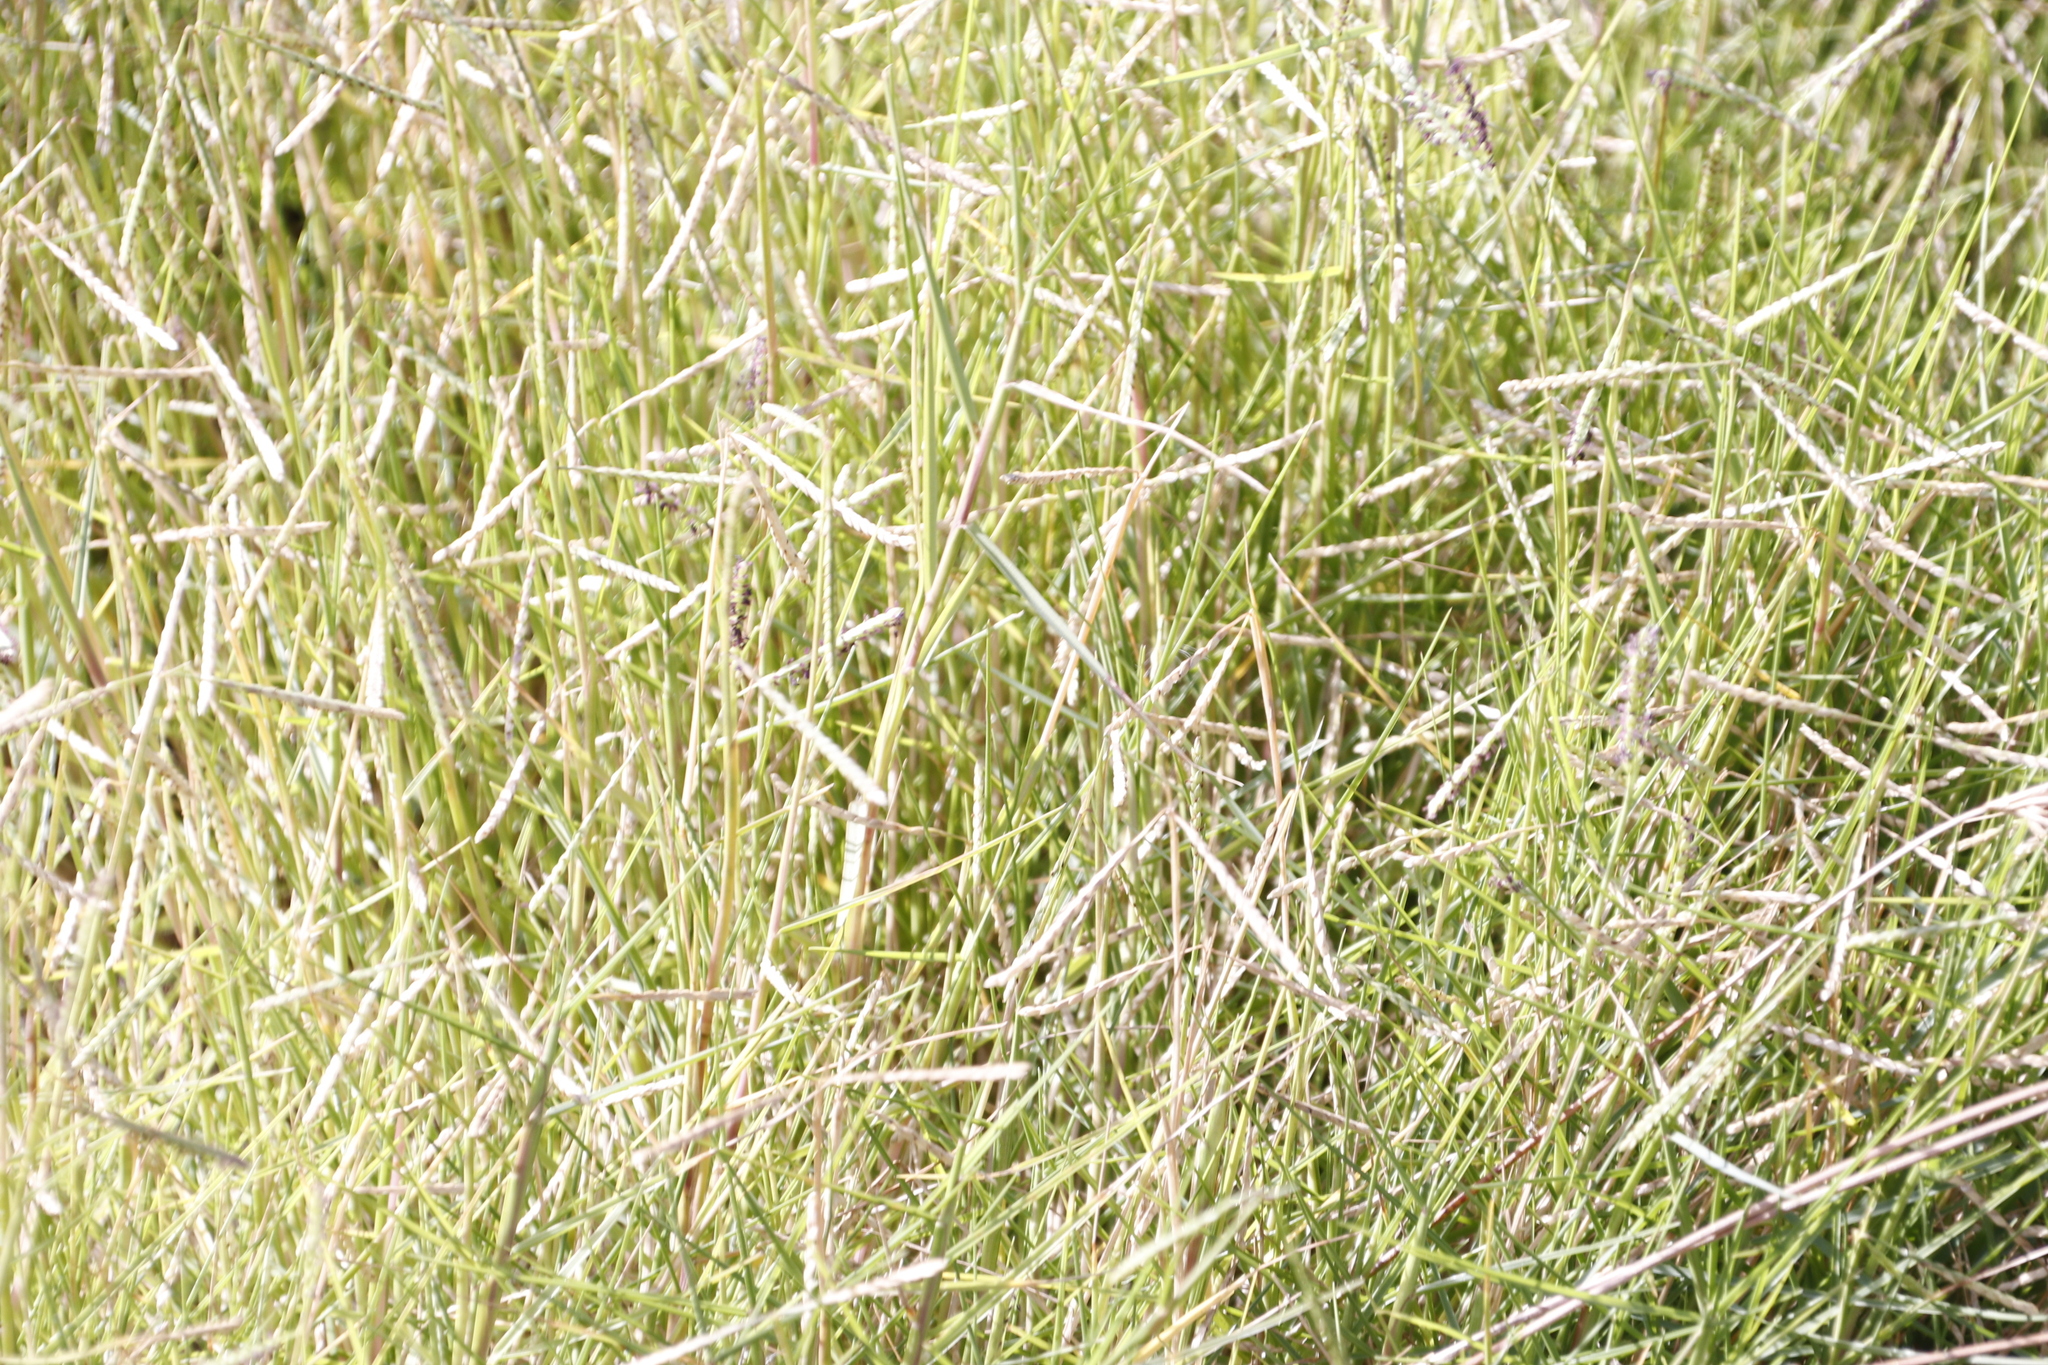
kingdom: Plantae
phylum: Tracheophyta
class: Liliopsida
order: Poales
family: Poaceae
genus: Cynodon
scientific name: Cynodon dactylon
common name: Bermuda grass
